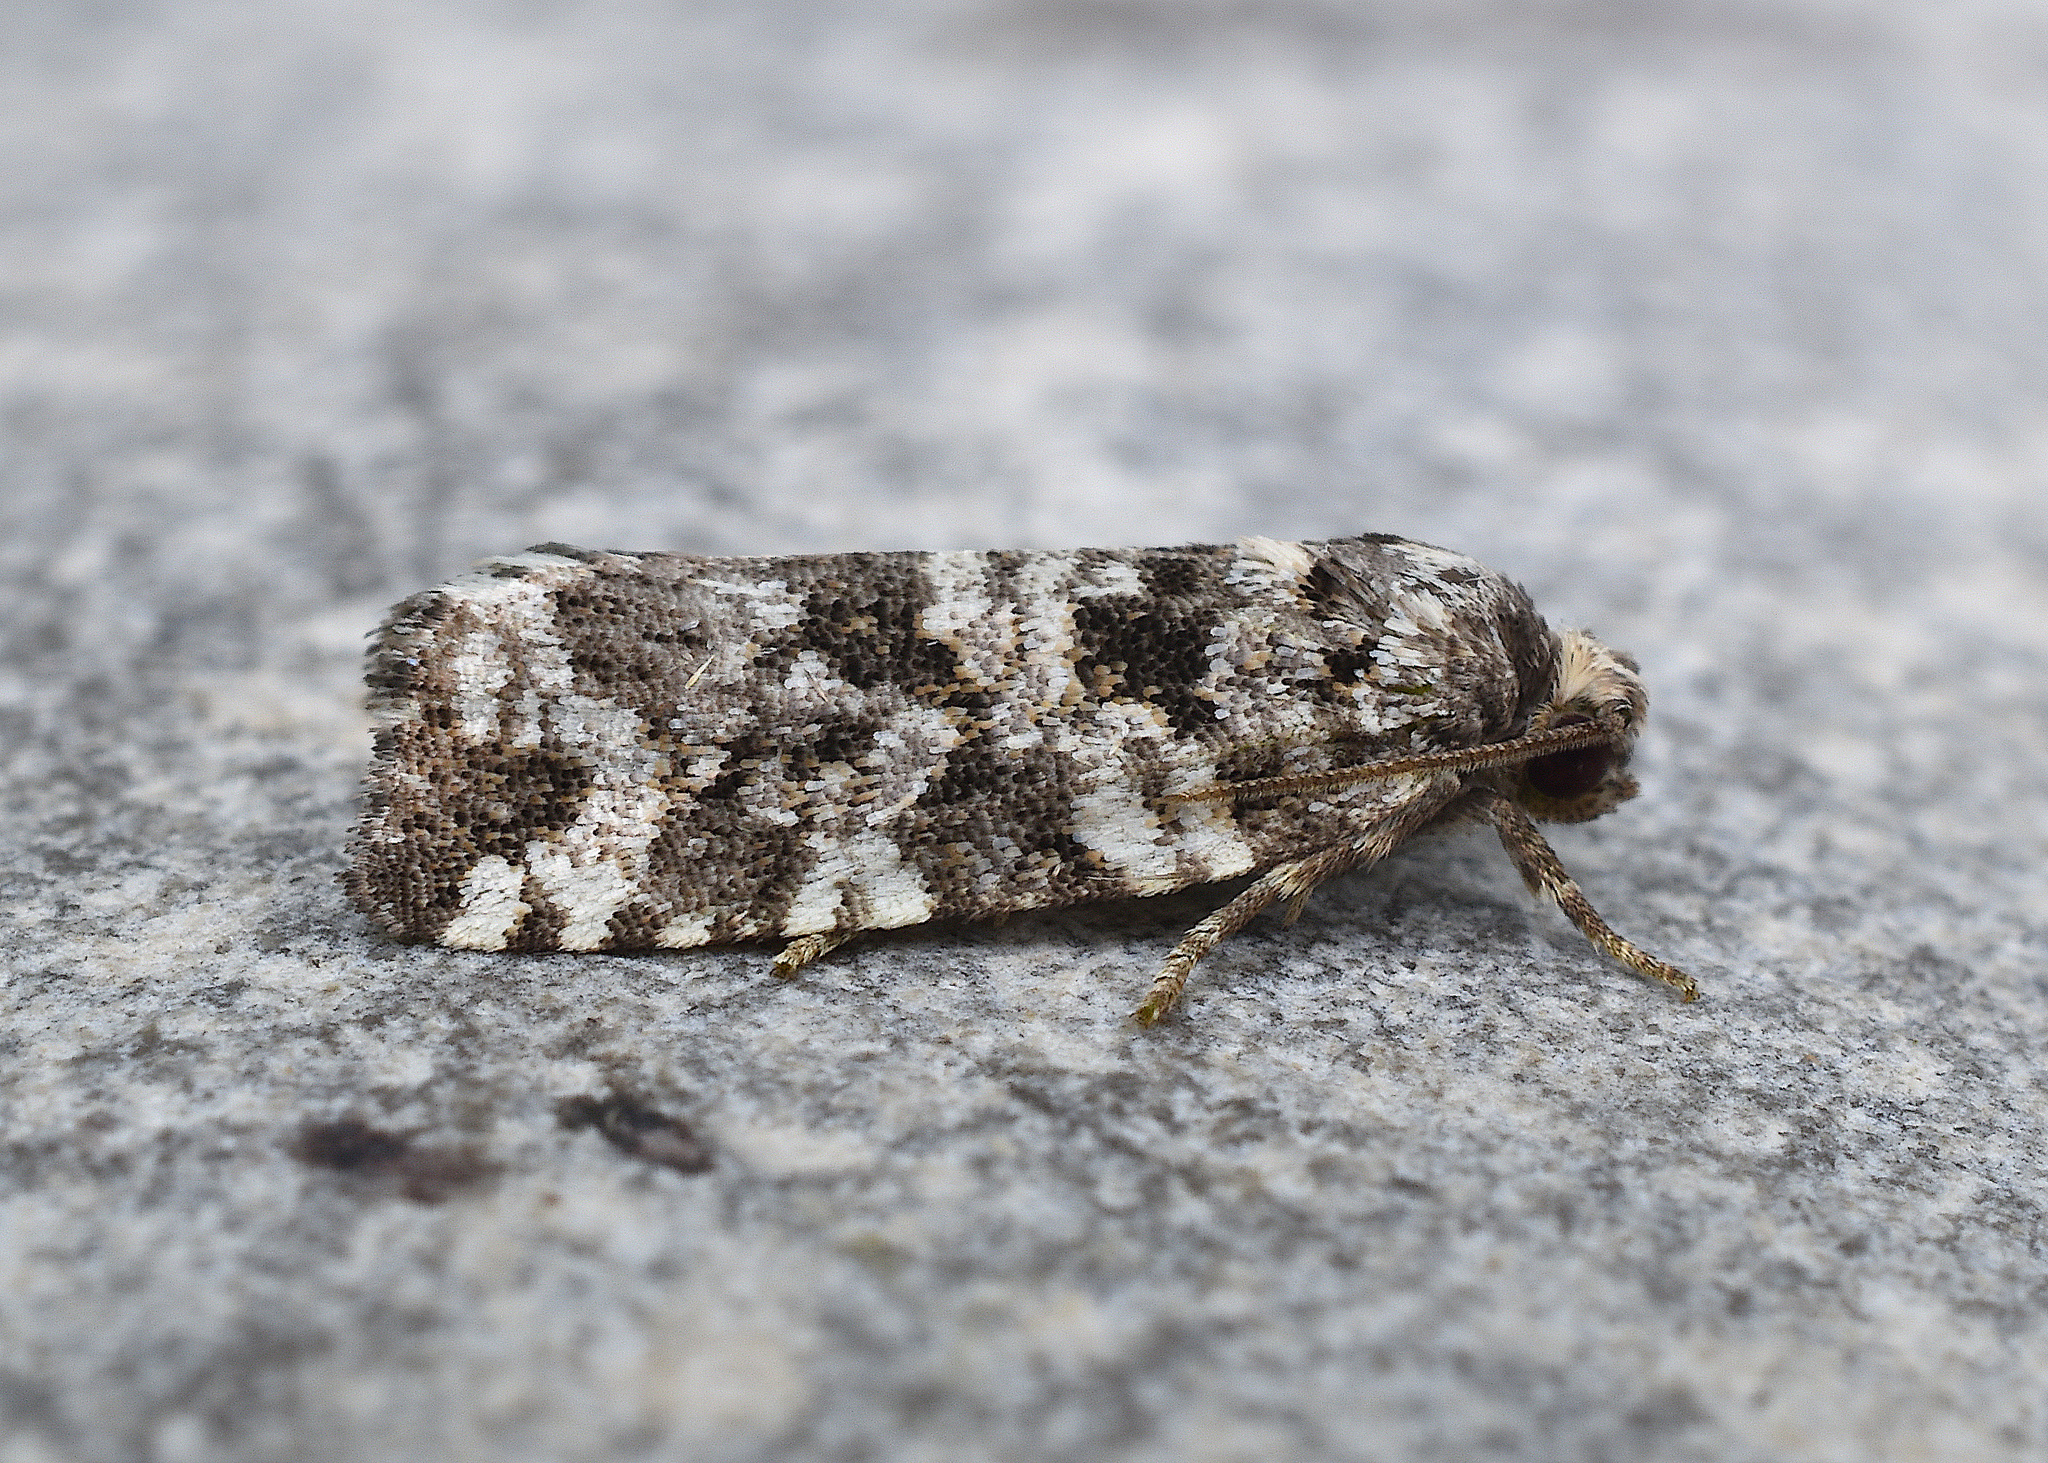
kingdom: Animalia
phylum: Arthropoda
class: Insecta
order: Lepidoptera
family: Tortricidae
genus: Archips
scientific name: Archips packardiana
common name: Spring spruce needle moth
